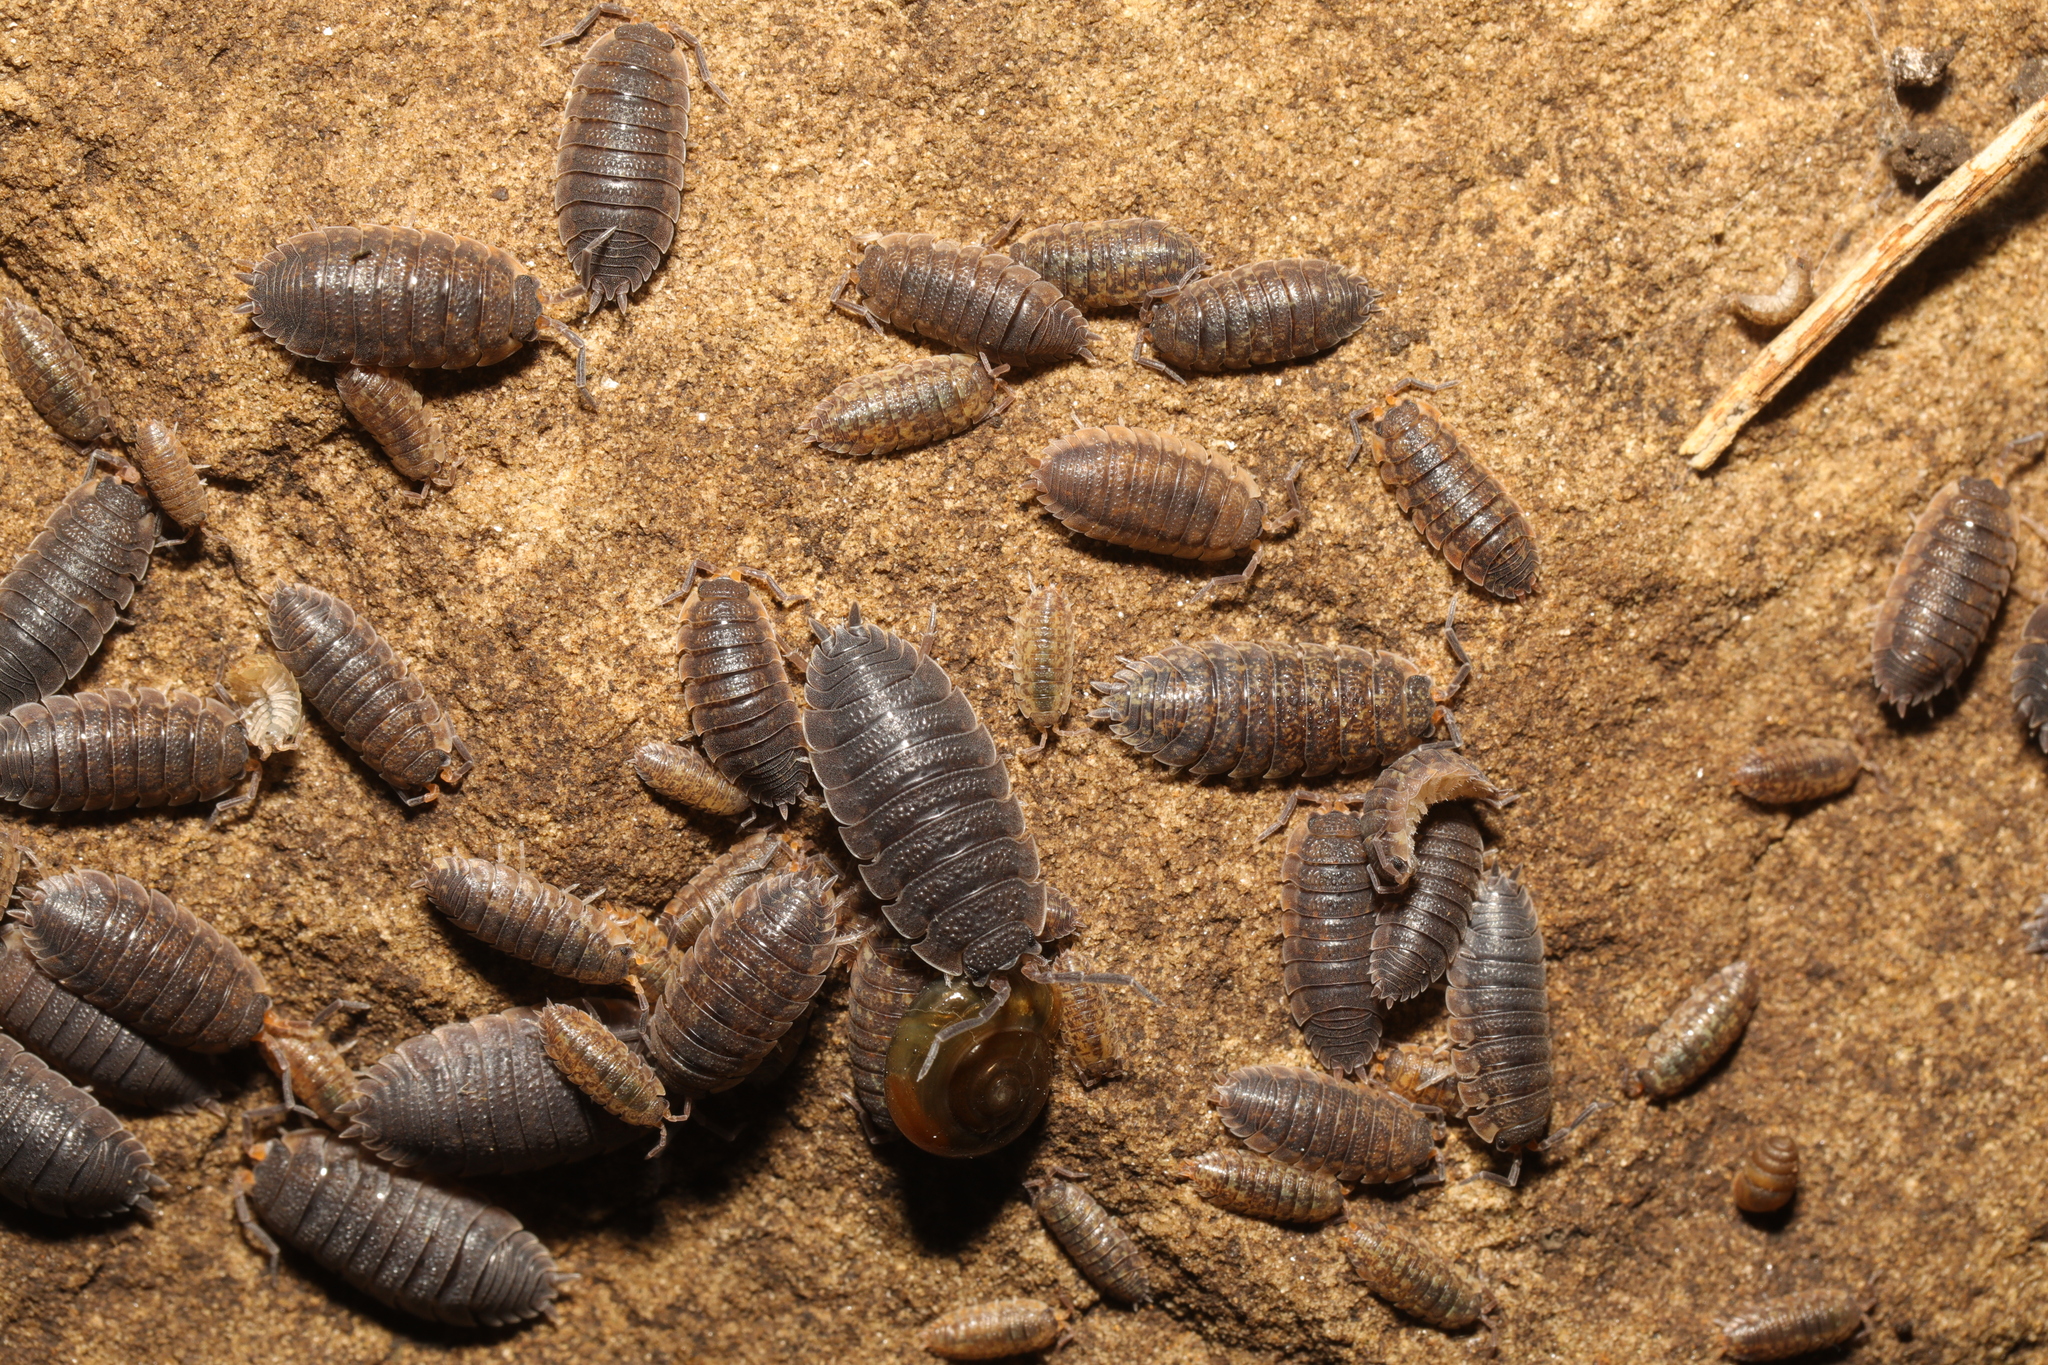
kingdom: Animalia
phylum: Arthropoda
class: Malacostraca
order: Isopoda
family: Porcellionidae
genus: Porcellio
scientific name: Porcellio scaber
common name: Common rough woodlouse
